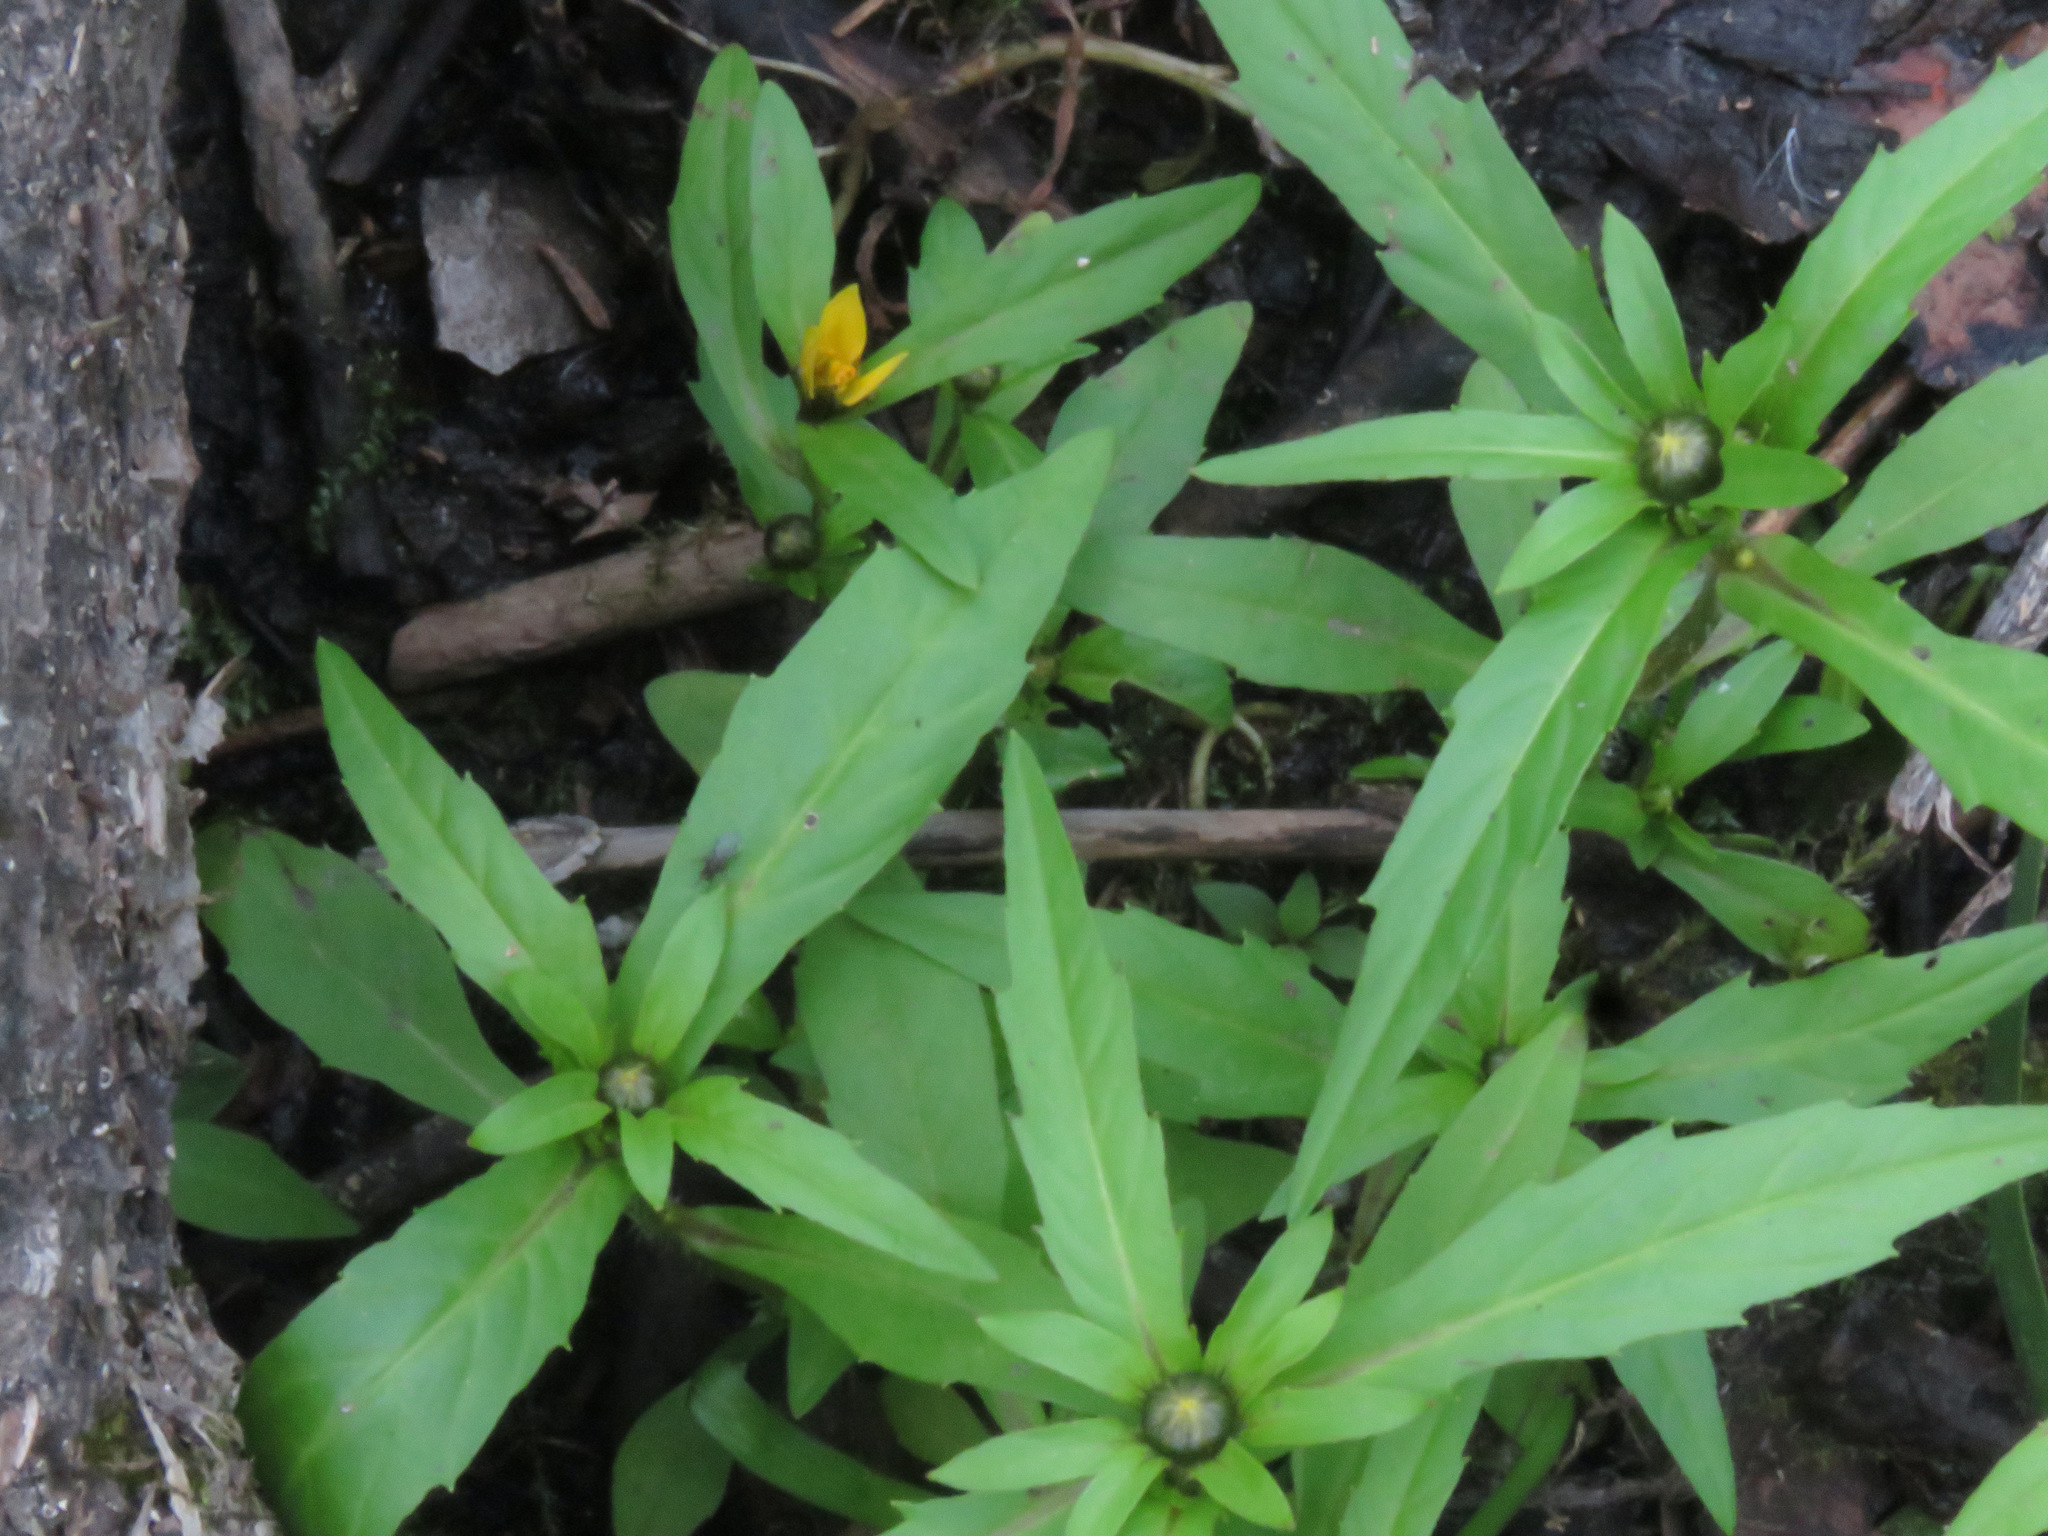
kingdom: Plantae
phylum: Tracheophyta
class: Magnoliopsida
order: Asterales
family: Asteraceae
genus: Bidens
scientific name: Bidens cernua
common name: Nodding bur-marigold
